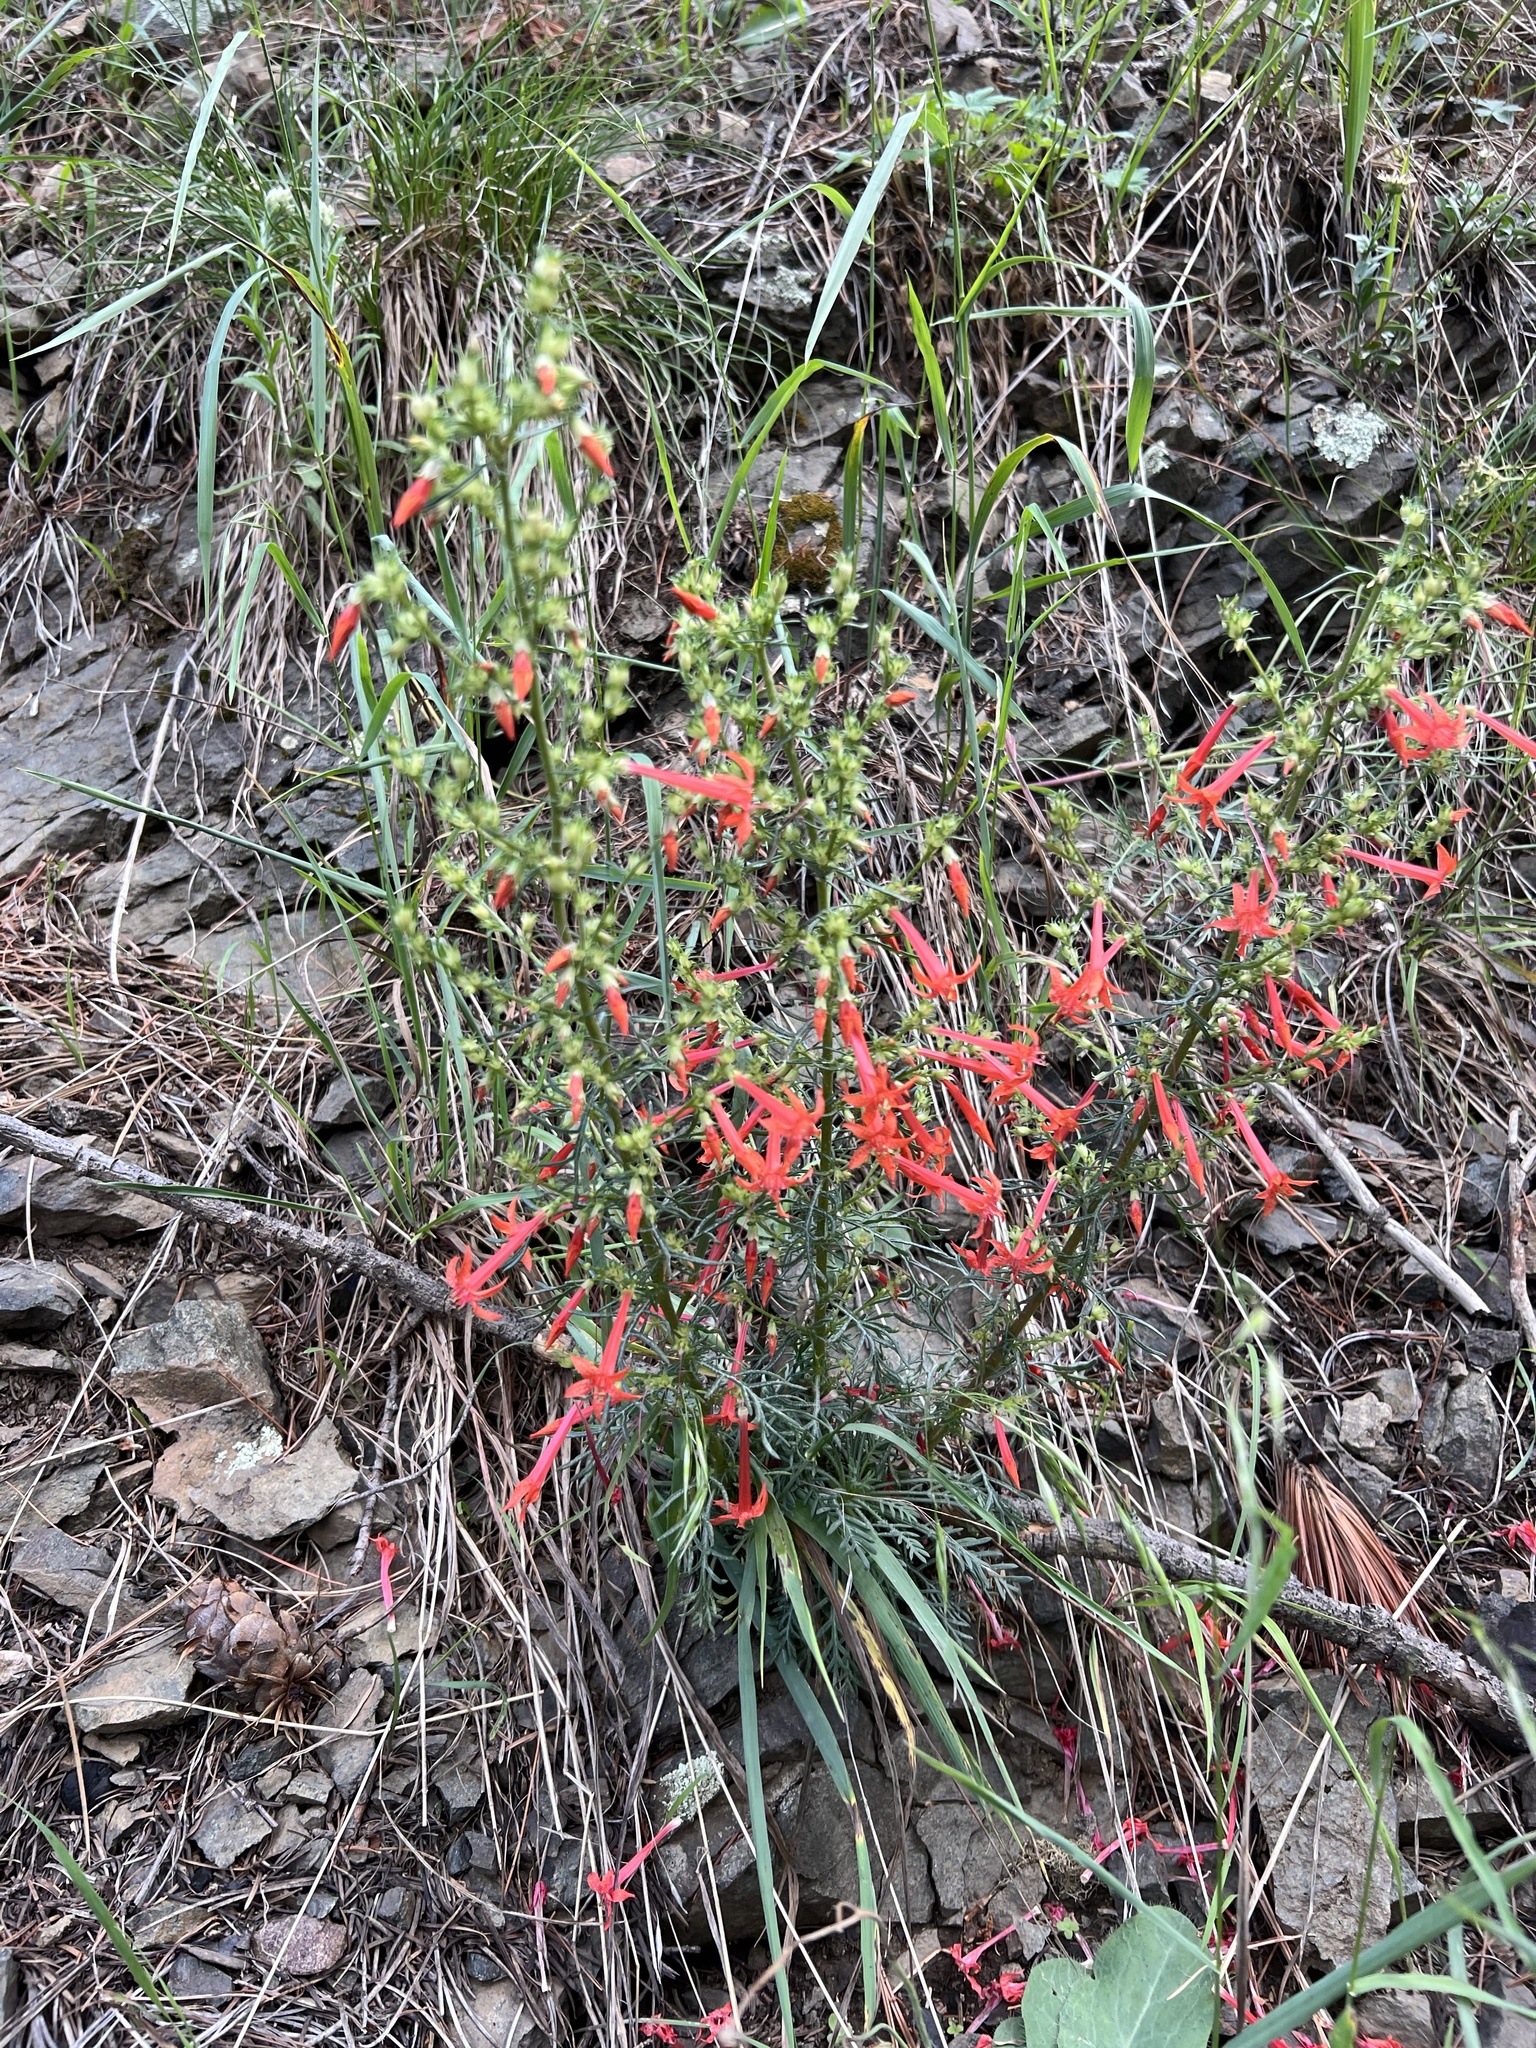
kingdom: Plantae
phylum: Tracheophyta
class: Magnoliopsida
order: Ericales
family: Polemoniaceae
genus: Ipomopsis
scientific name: Ipomopsis aggregata
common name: Scarlet gilia
